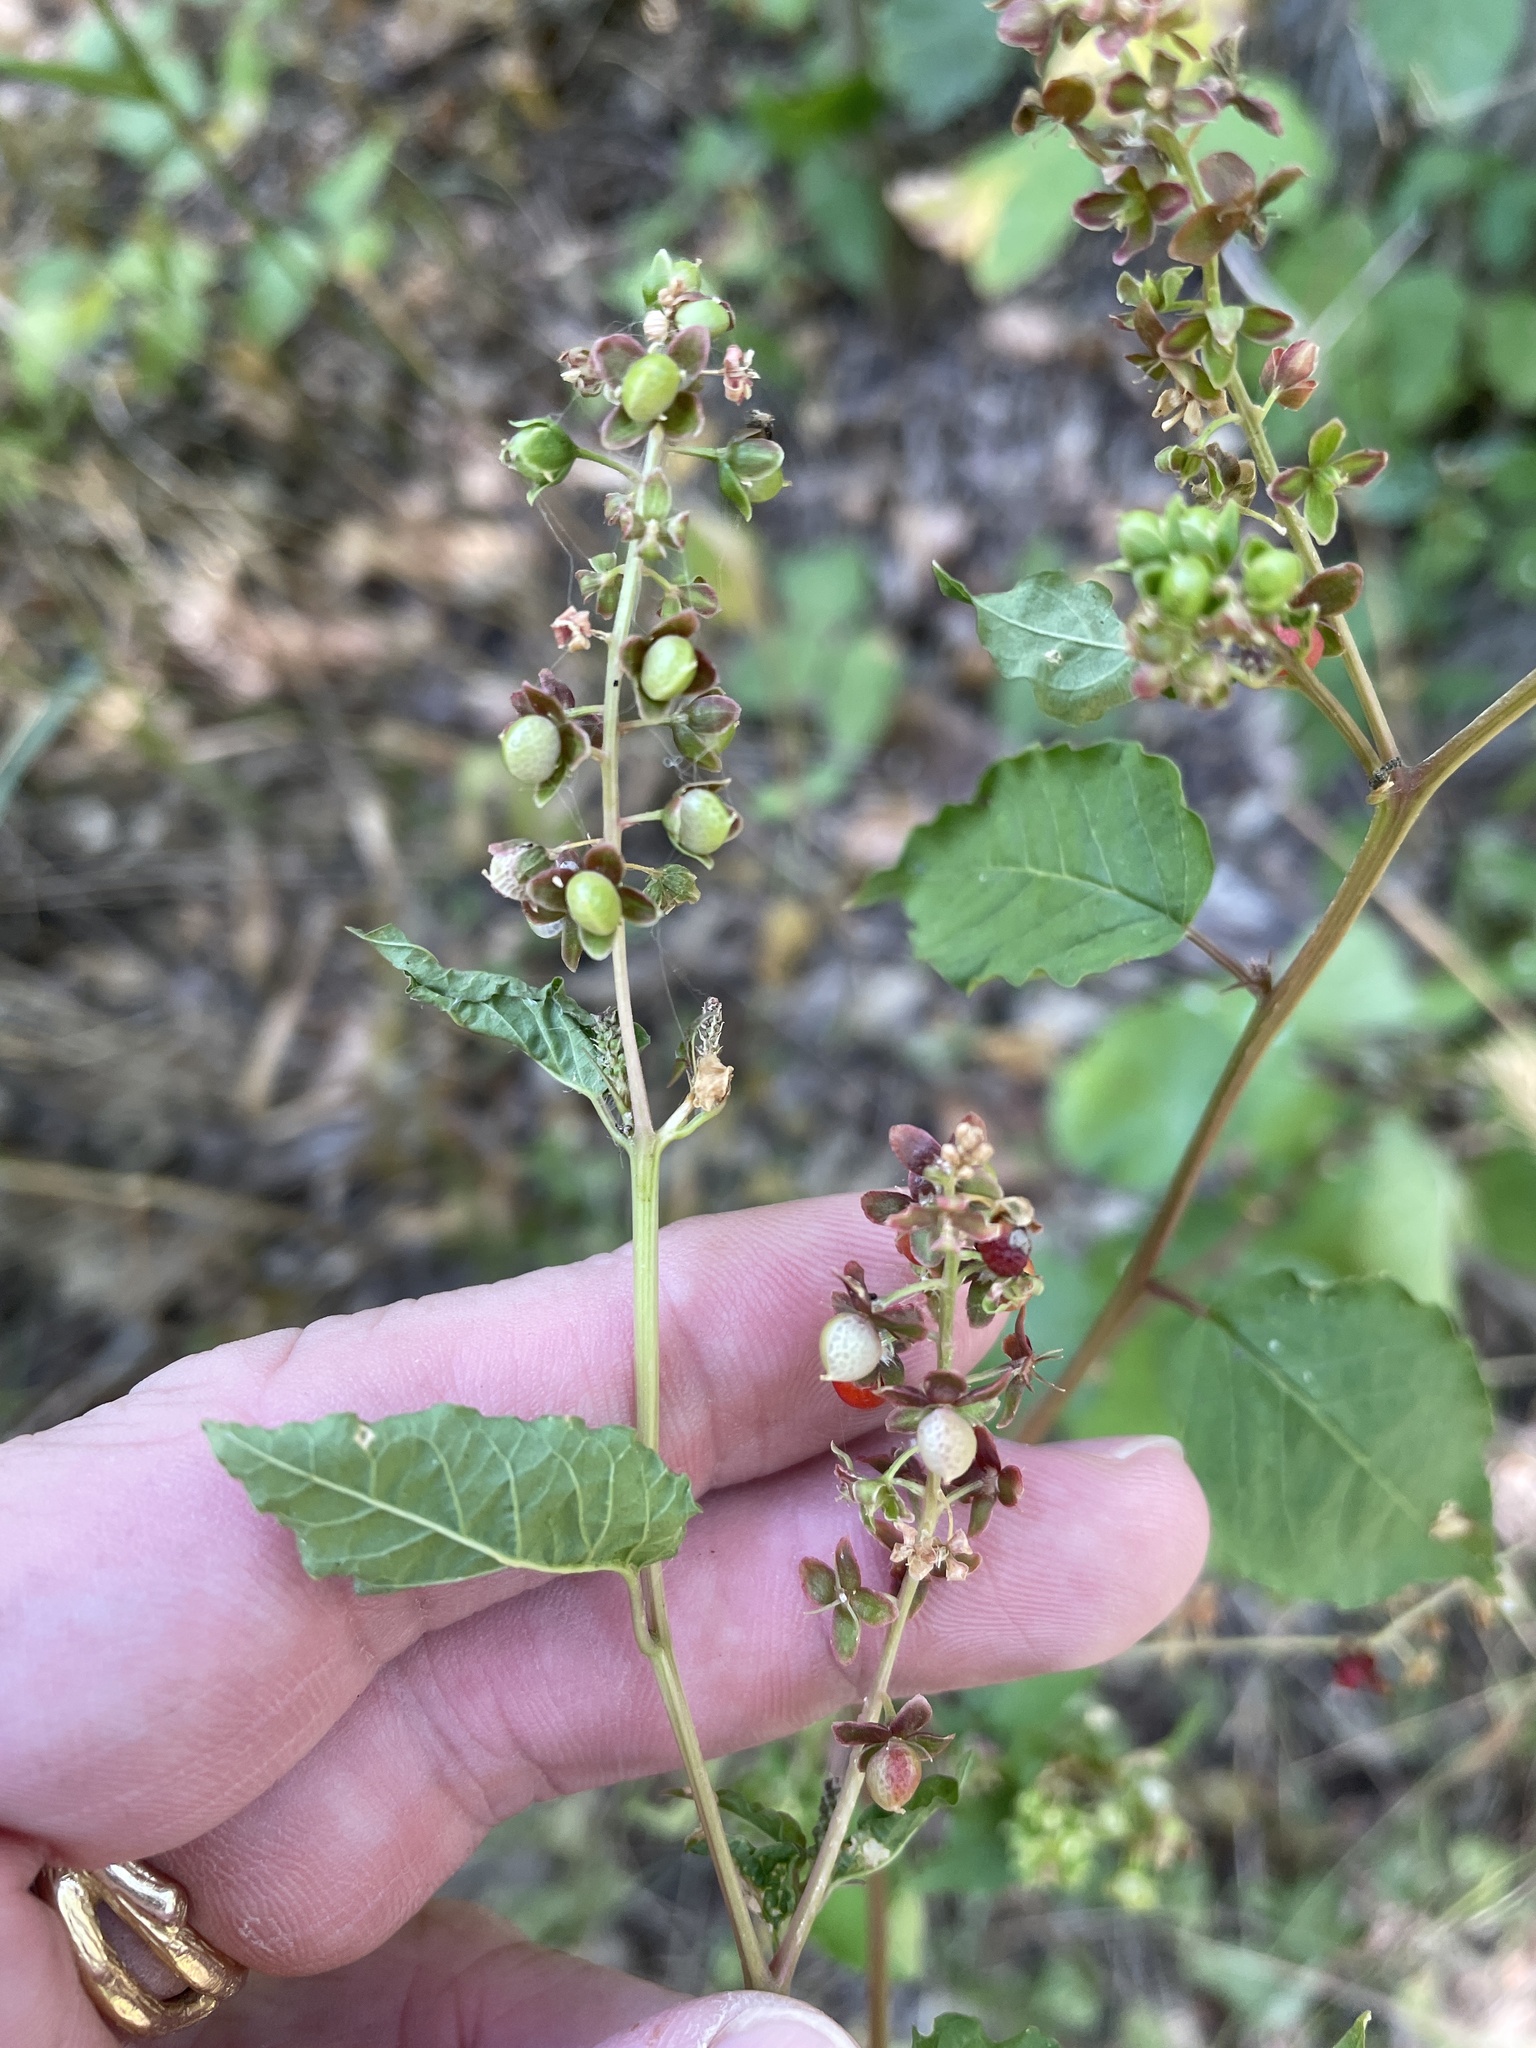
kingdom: Plantae
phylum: Tracheophyta
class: Magnoliopsida
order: Caryophyllales
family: Phytolaccaceae
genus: Rivina
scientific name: Rivina humilis
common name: Rougeplant
